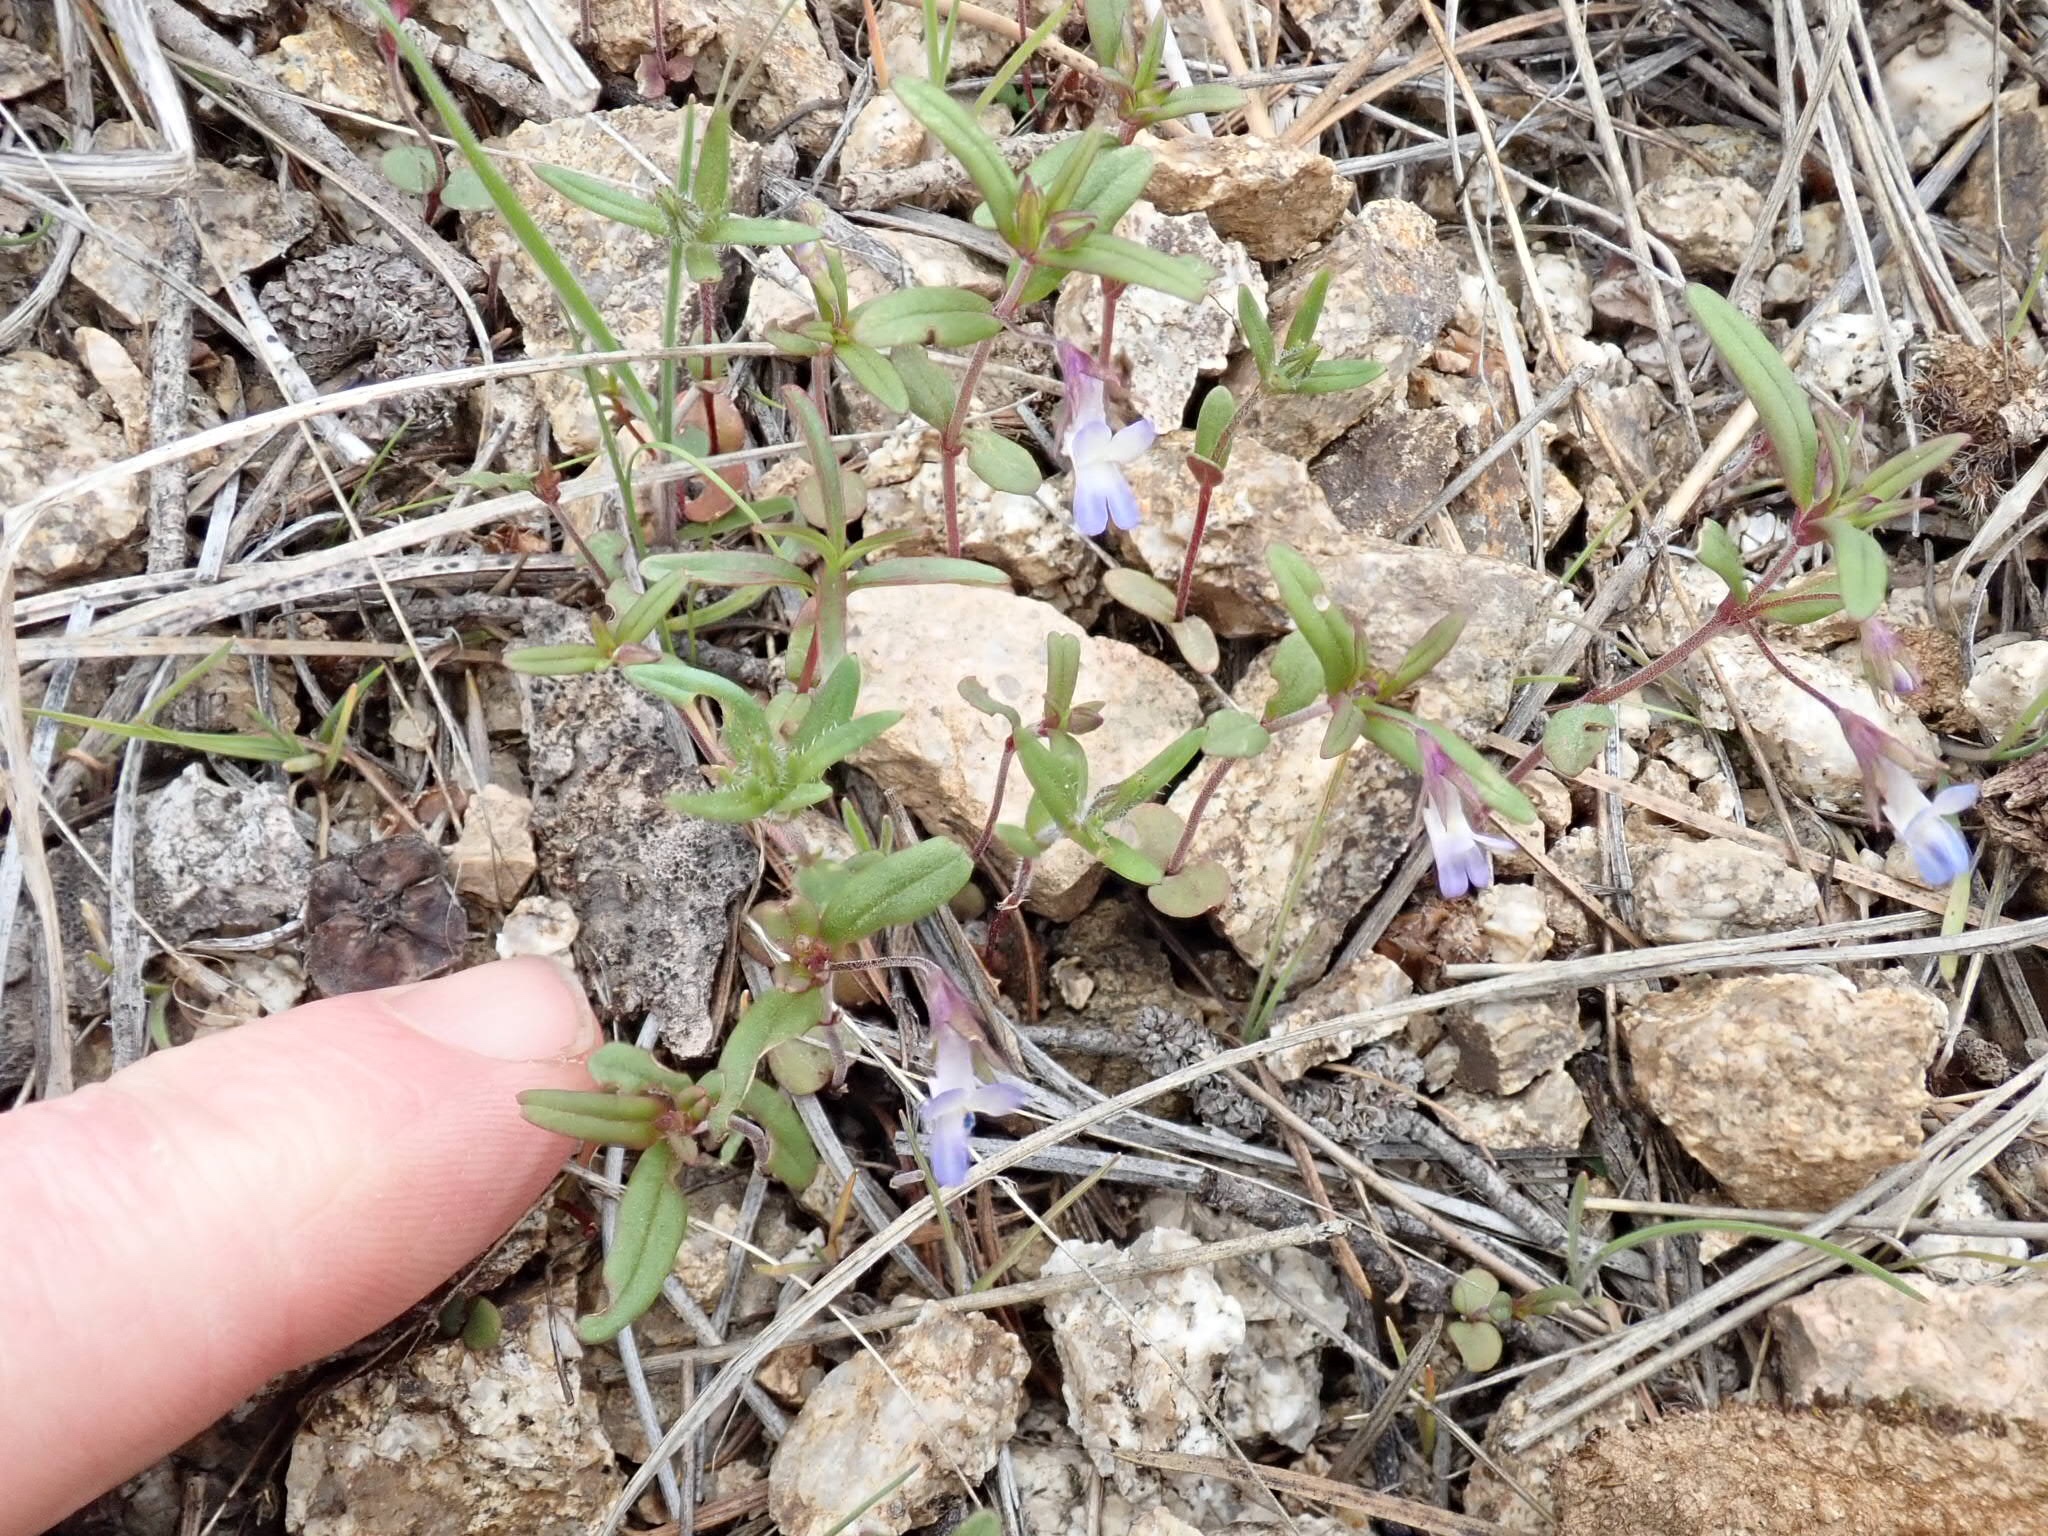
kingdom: Plantae
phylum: Tracheophyta
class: Magnoliopsida
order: Lamiales
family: Plantaginaceae
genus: Collinsia
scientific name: Collinsia parviflora
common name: Blue-lips
